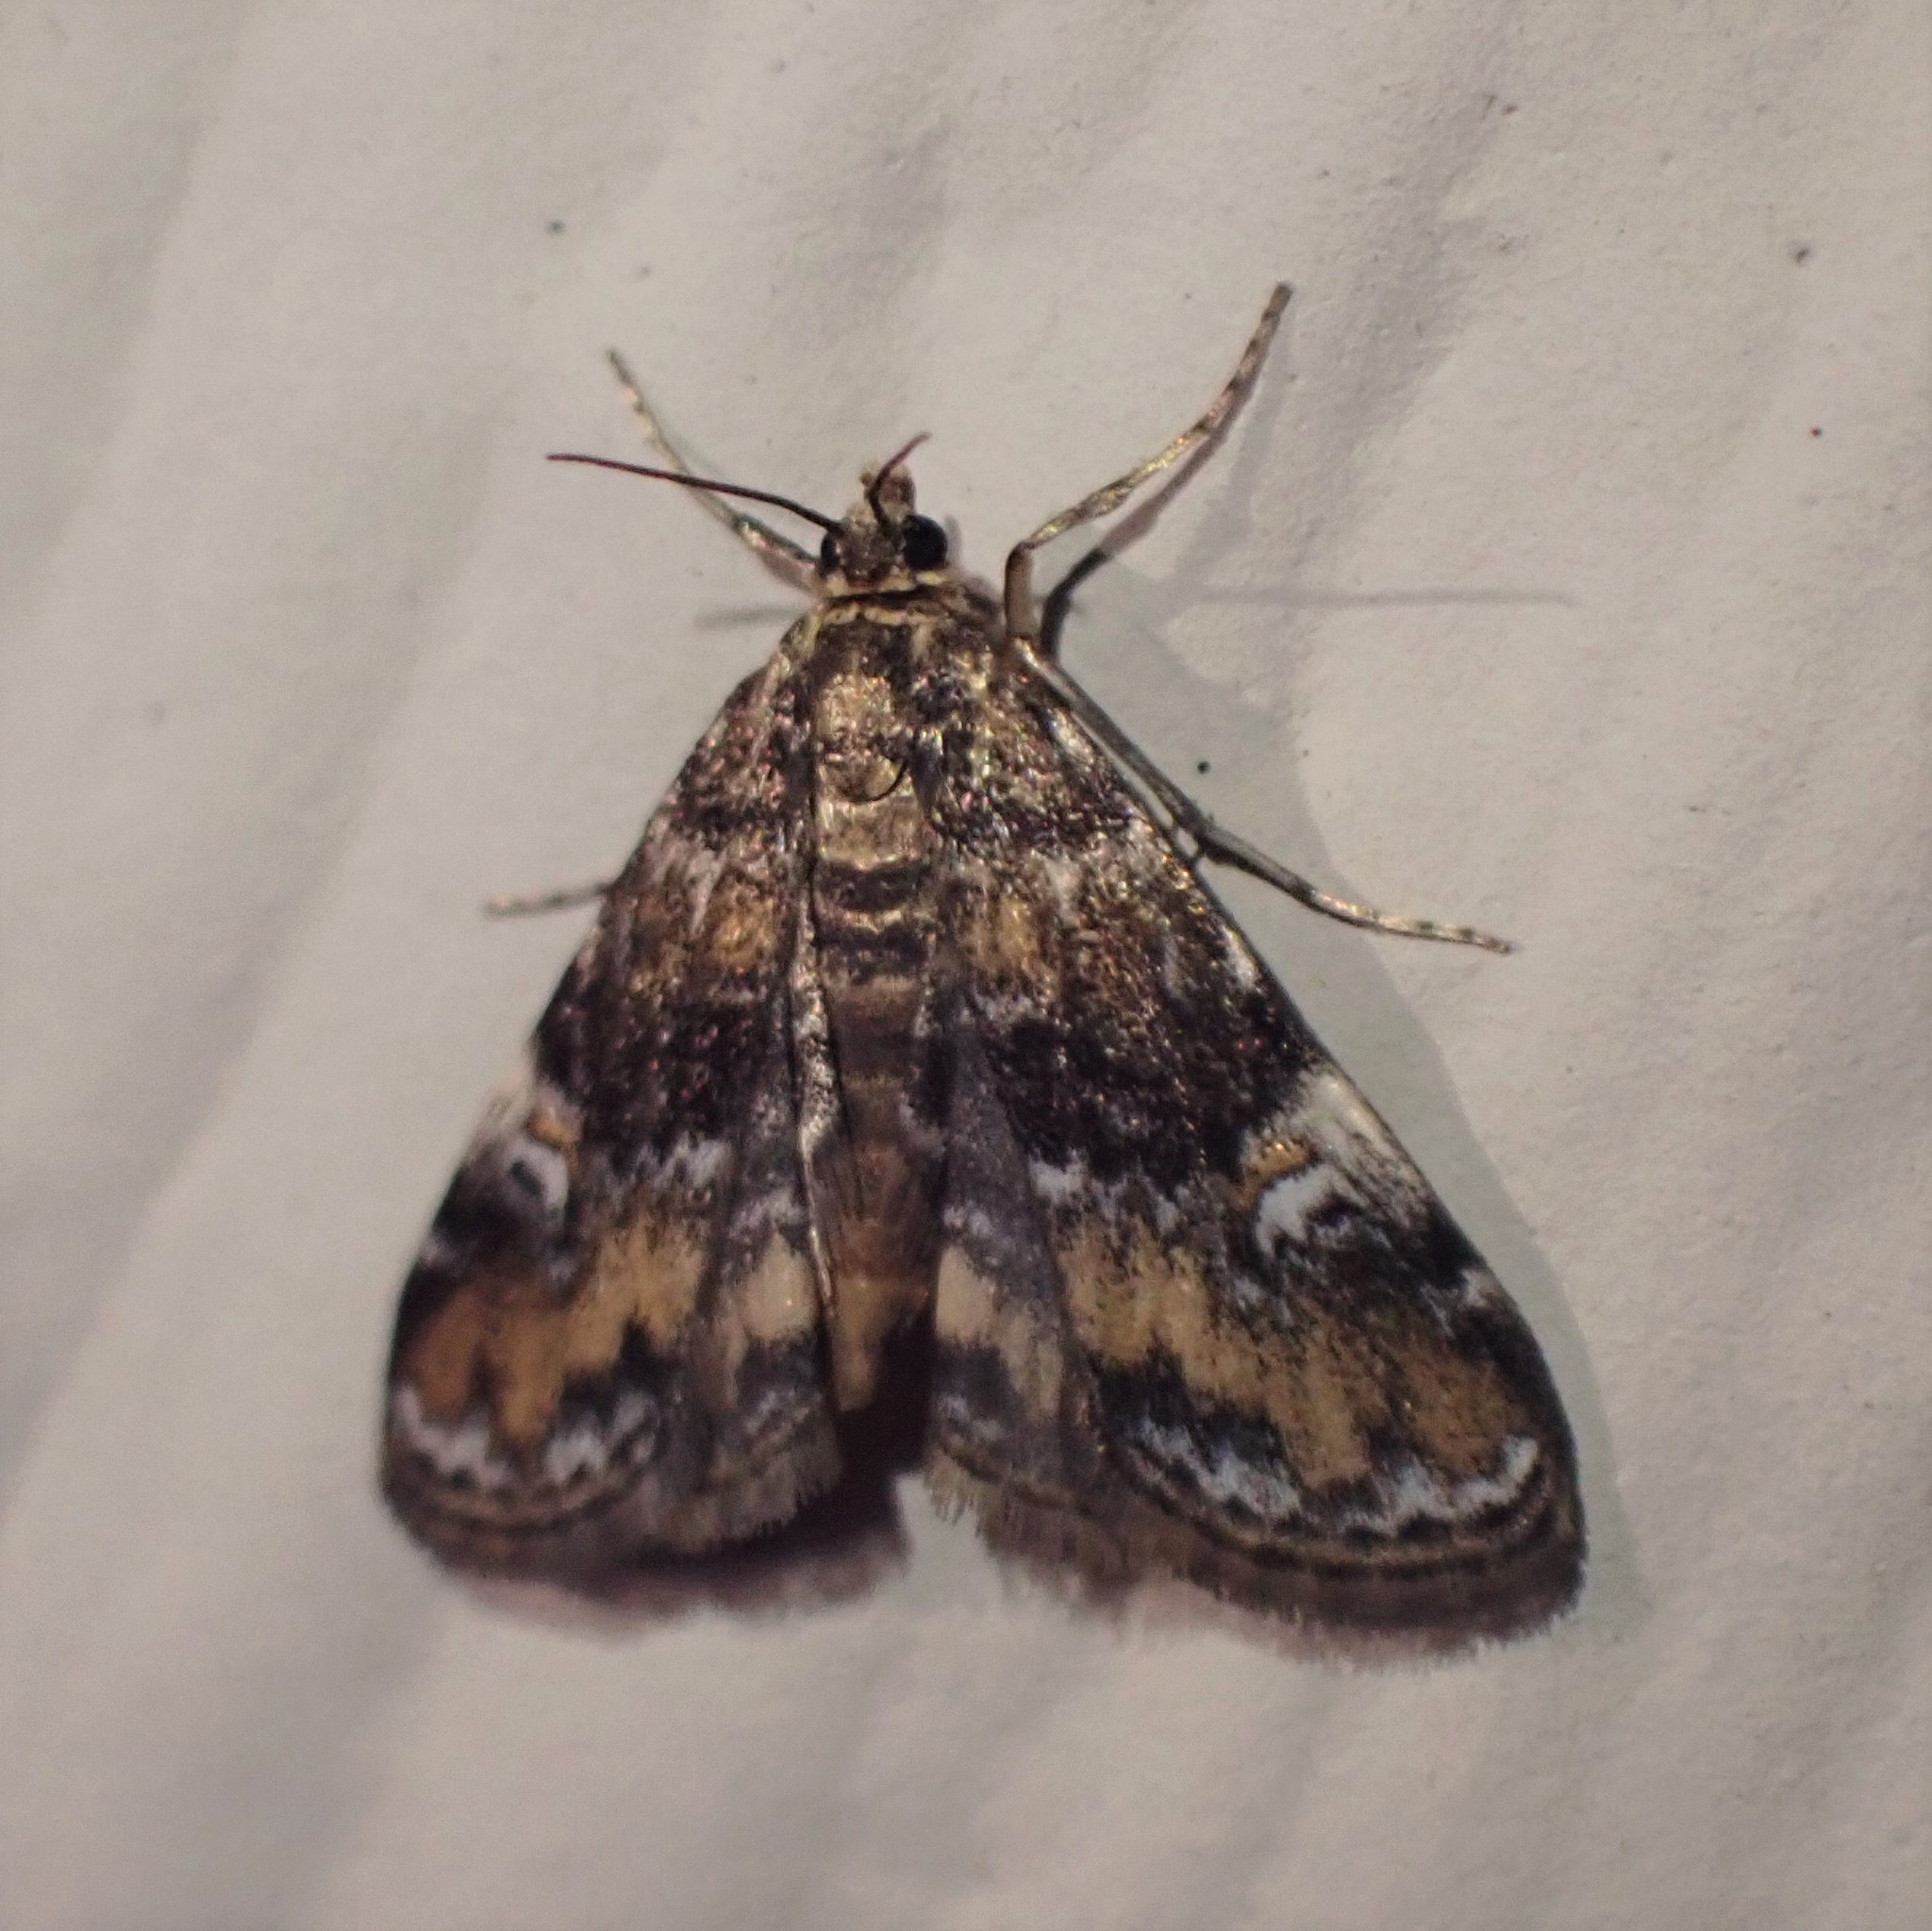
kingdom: Animalia
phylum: Arthropoda
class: Insecta
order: Lepidoptera
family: Crambidae
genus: Elophila
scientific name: Elophila obliteralis
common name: Waterlily leafcutter moth
